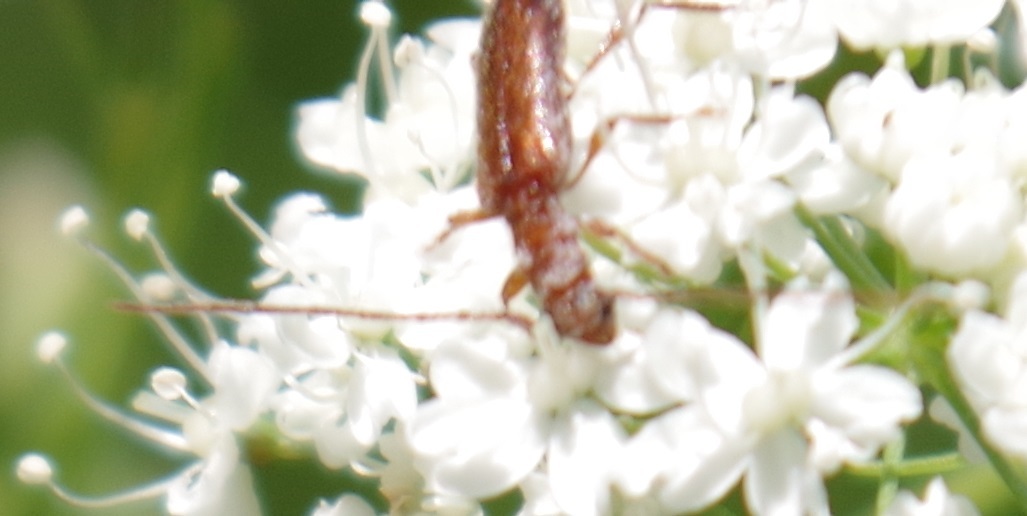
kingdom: Animalia
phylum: Arthropoda
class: Insecta
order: Coleoptera
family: Cerambycidae
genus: Obrium
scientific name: Obrium brunneum
